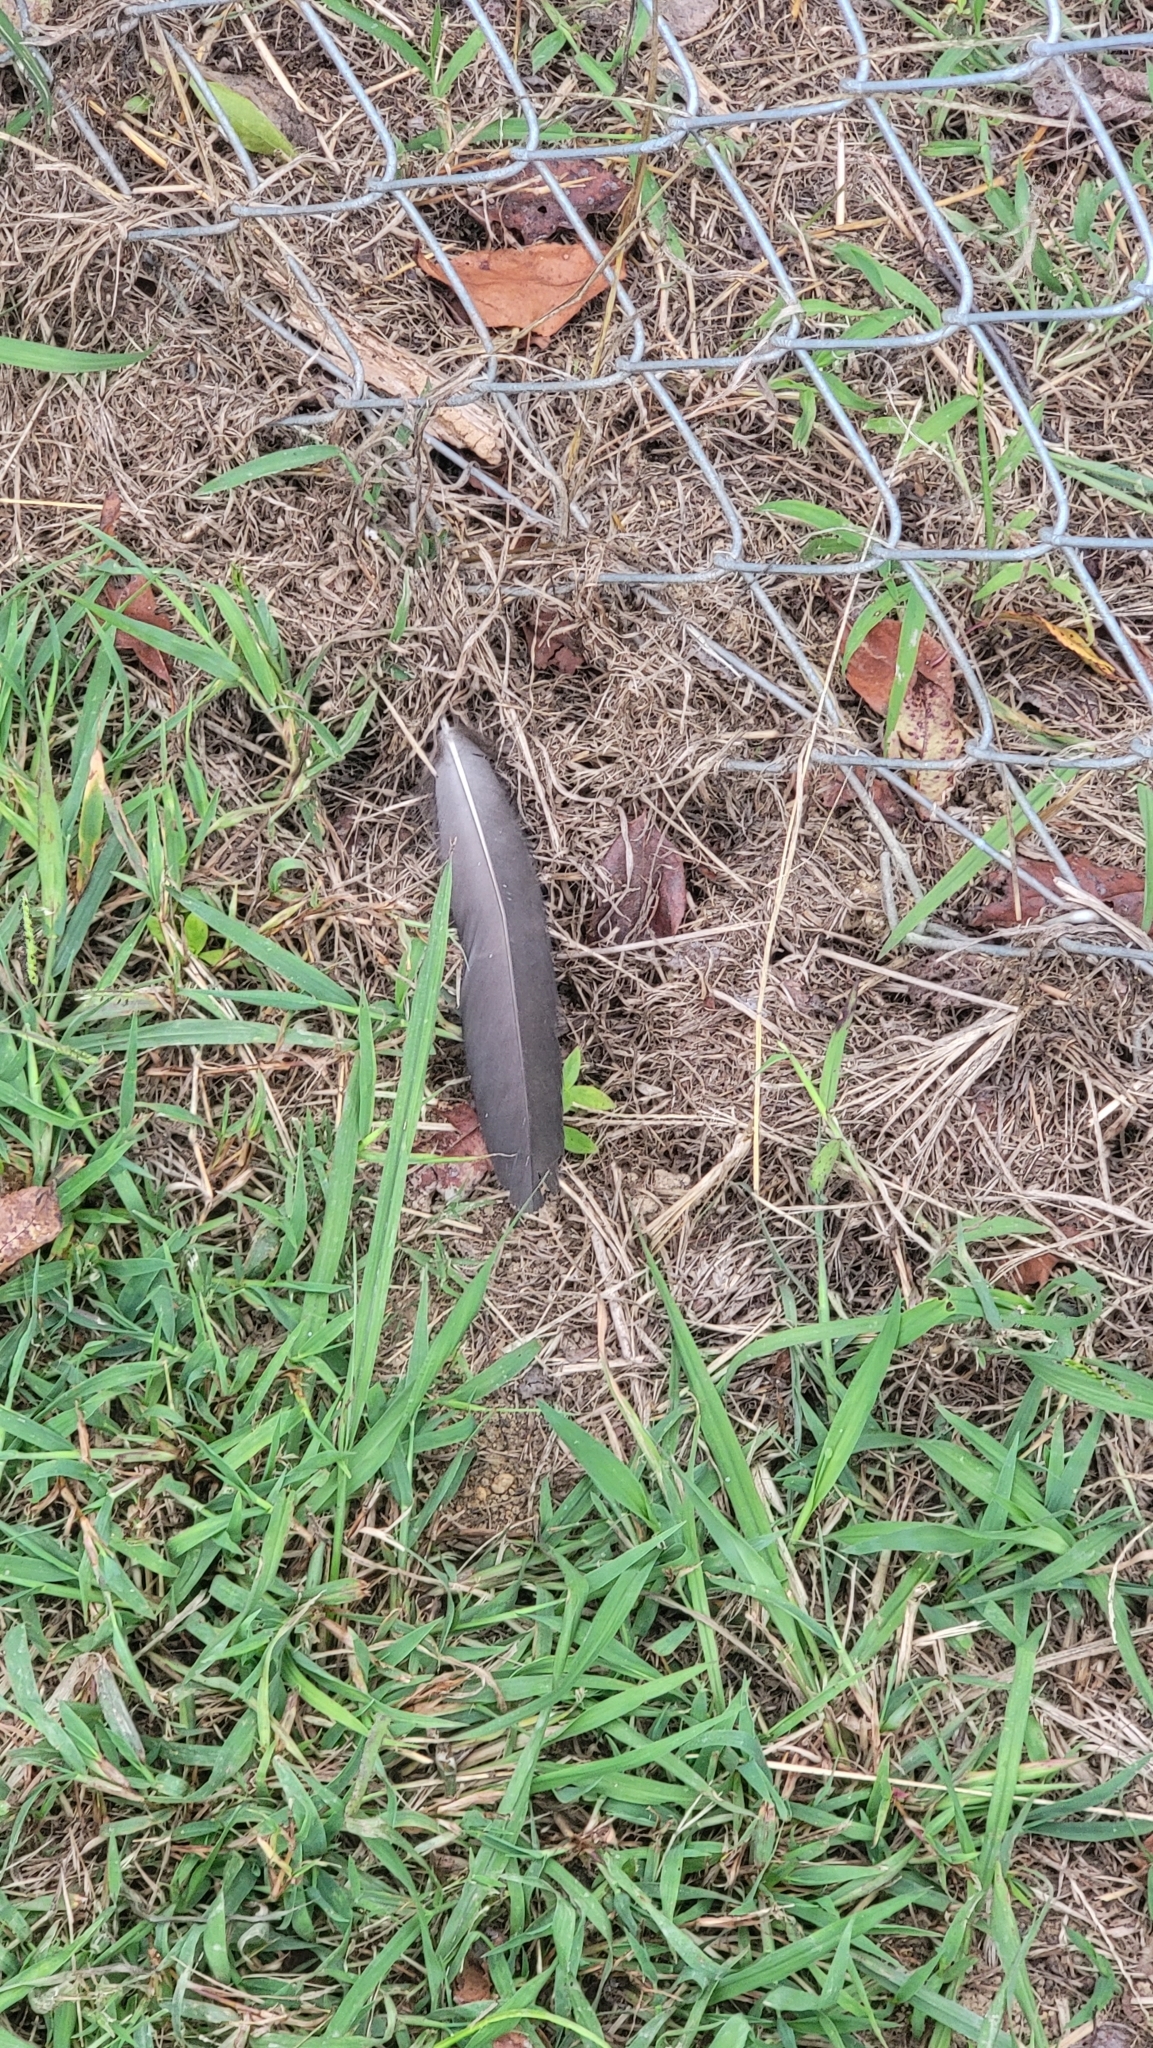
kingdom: Animalia
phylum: Chordata
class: Aves
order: Accipitriformes
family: Cathartidae
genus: Coragyps
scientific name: Coragyps atratus
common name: Black vulture
